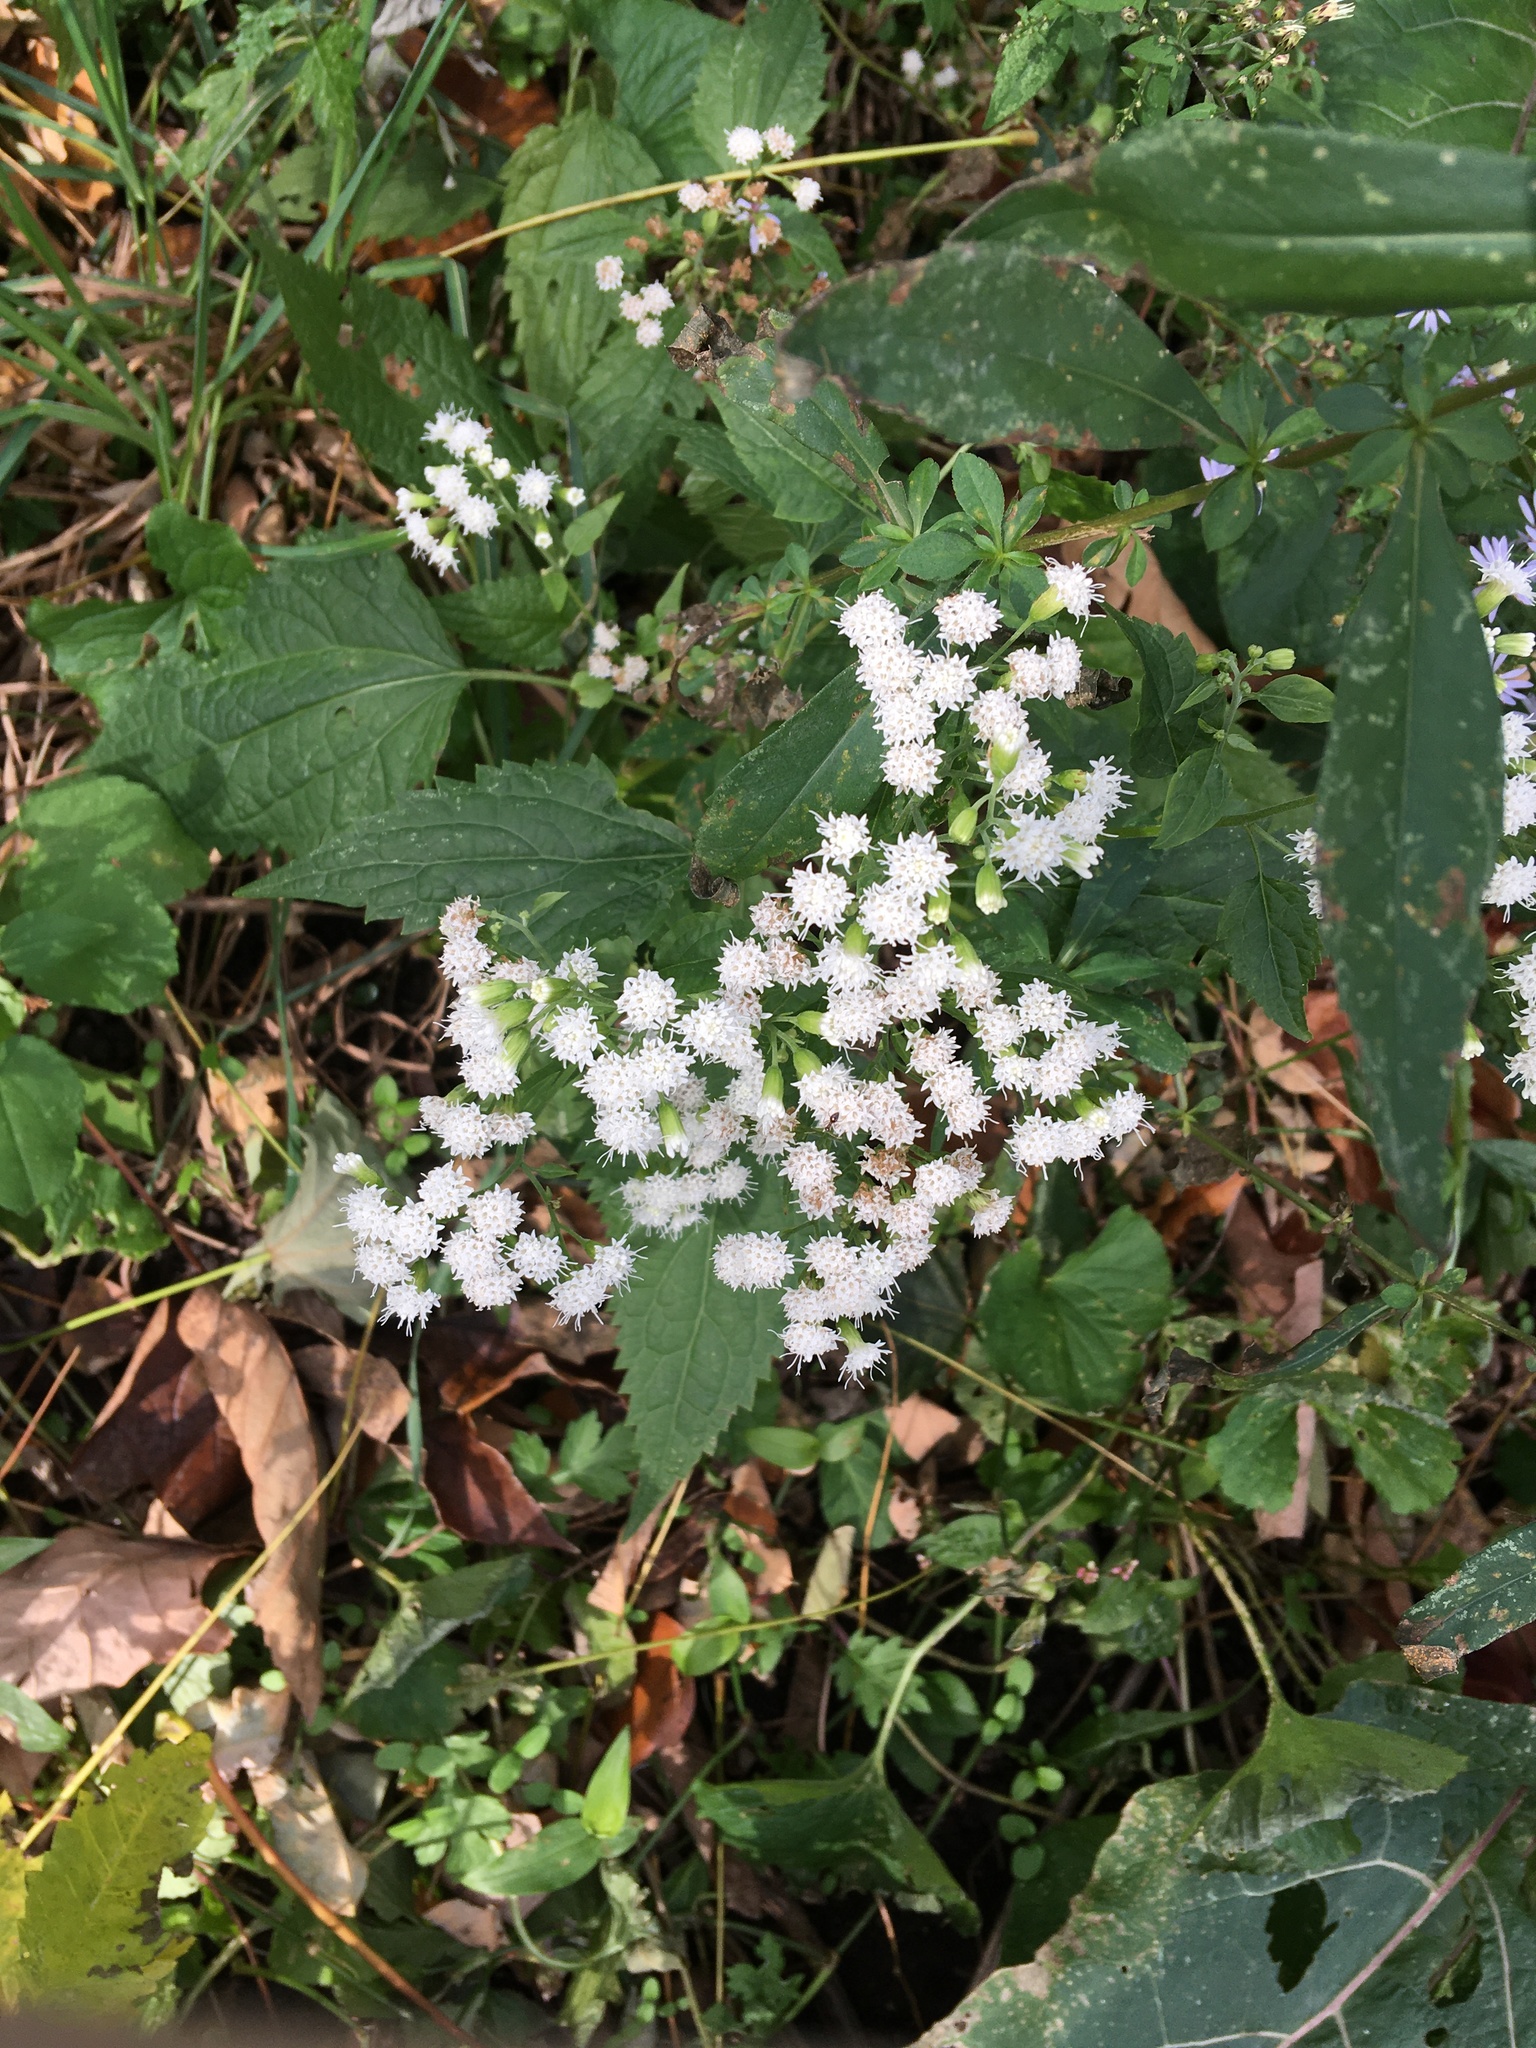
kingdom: Plantae
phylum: Tracheophyta
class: Magnoliopsida
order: Asterales
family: Asteraceae
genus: Ageratina
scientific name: Ageratina altissima
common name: White snakeroot
